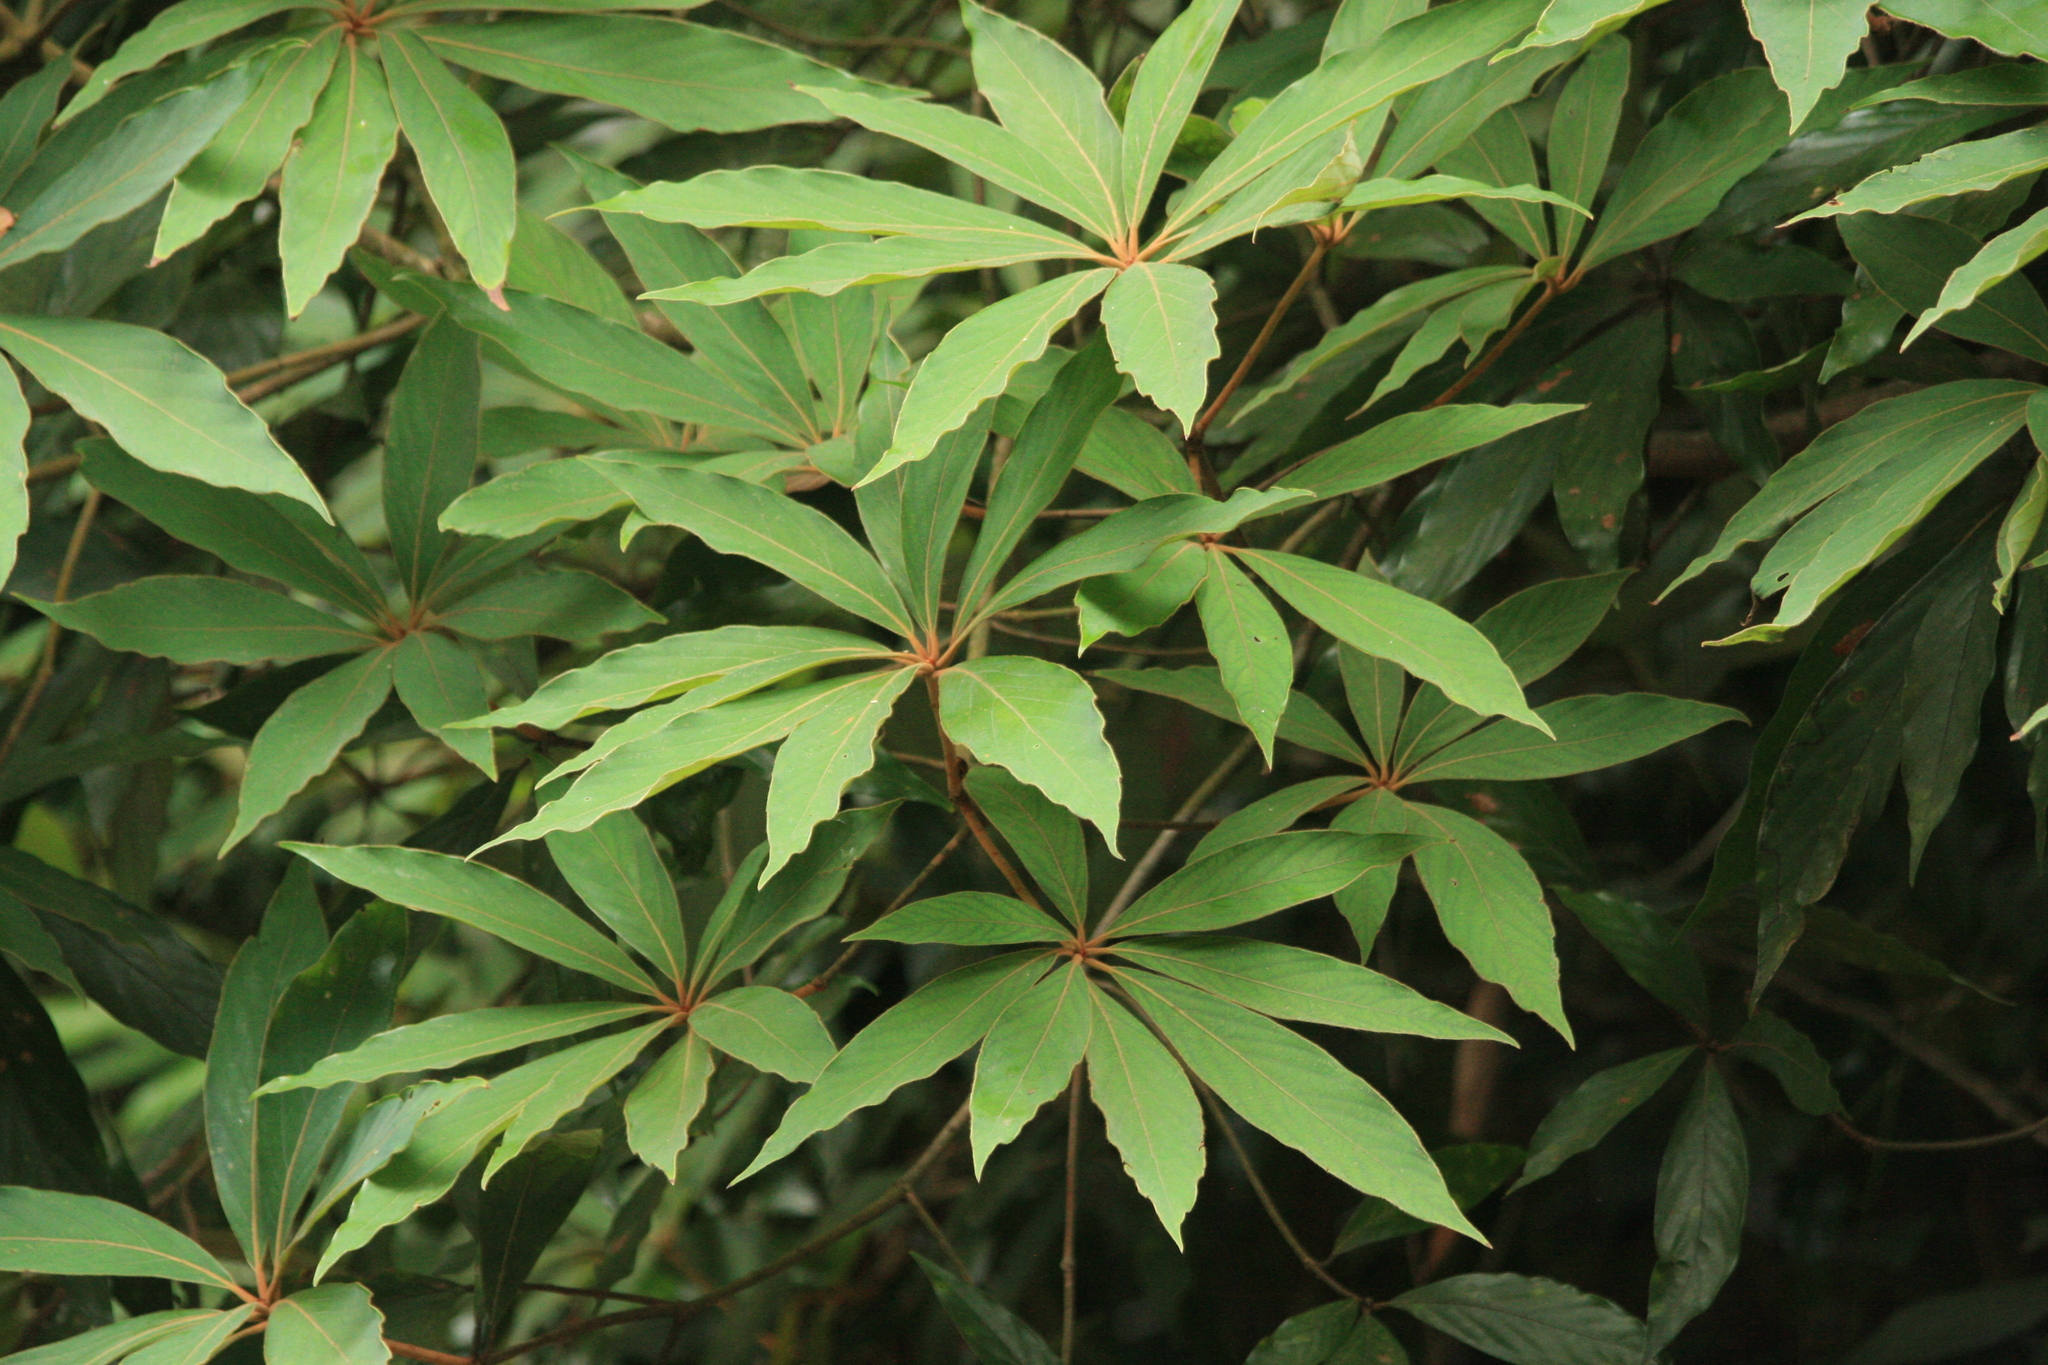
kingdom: Plantae
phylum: Tracheophyta
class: Magnoliopsida
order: Laurales
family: Lauraceae
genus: Actinodaphne
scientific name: Actinodaphne bourdillonii
